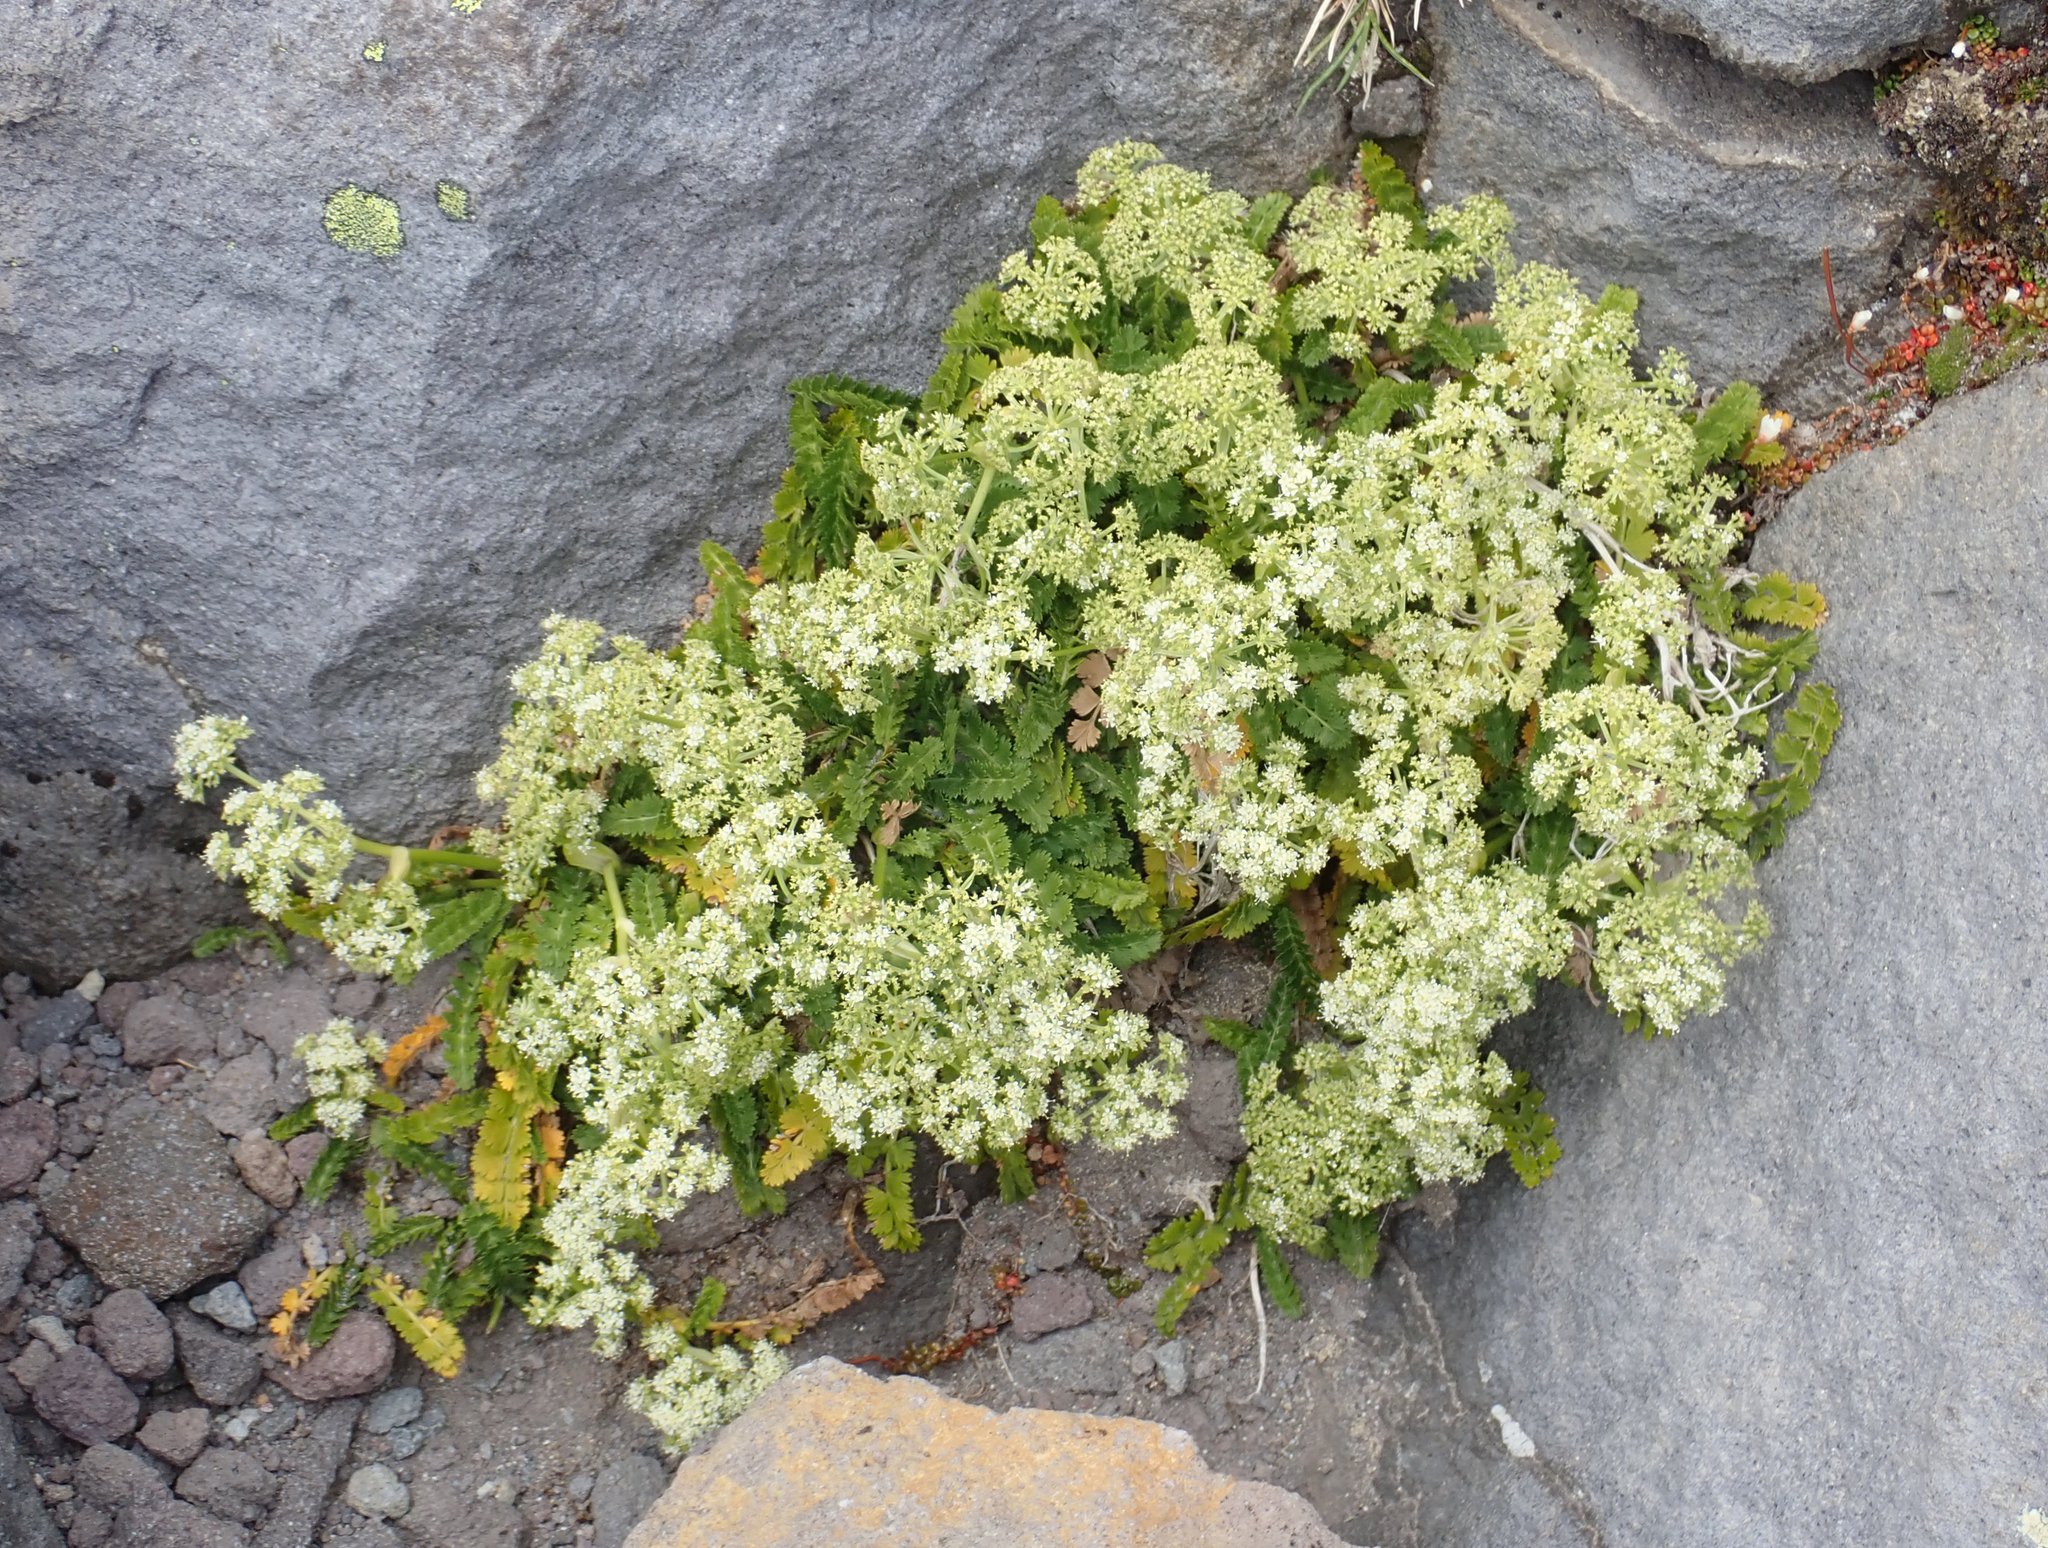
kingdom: Plantae
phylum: Tracheophyta
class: Magnoliopsida
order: Apiales
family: Apiaceae
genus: Anisotome
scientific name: Anisotome aromatica
